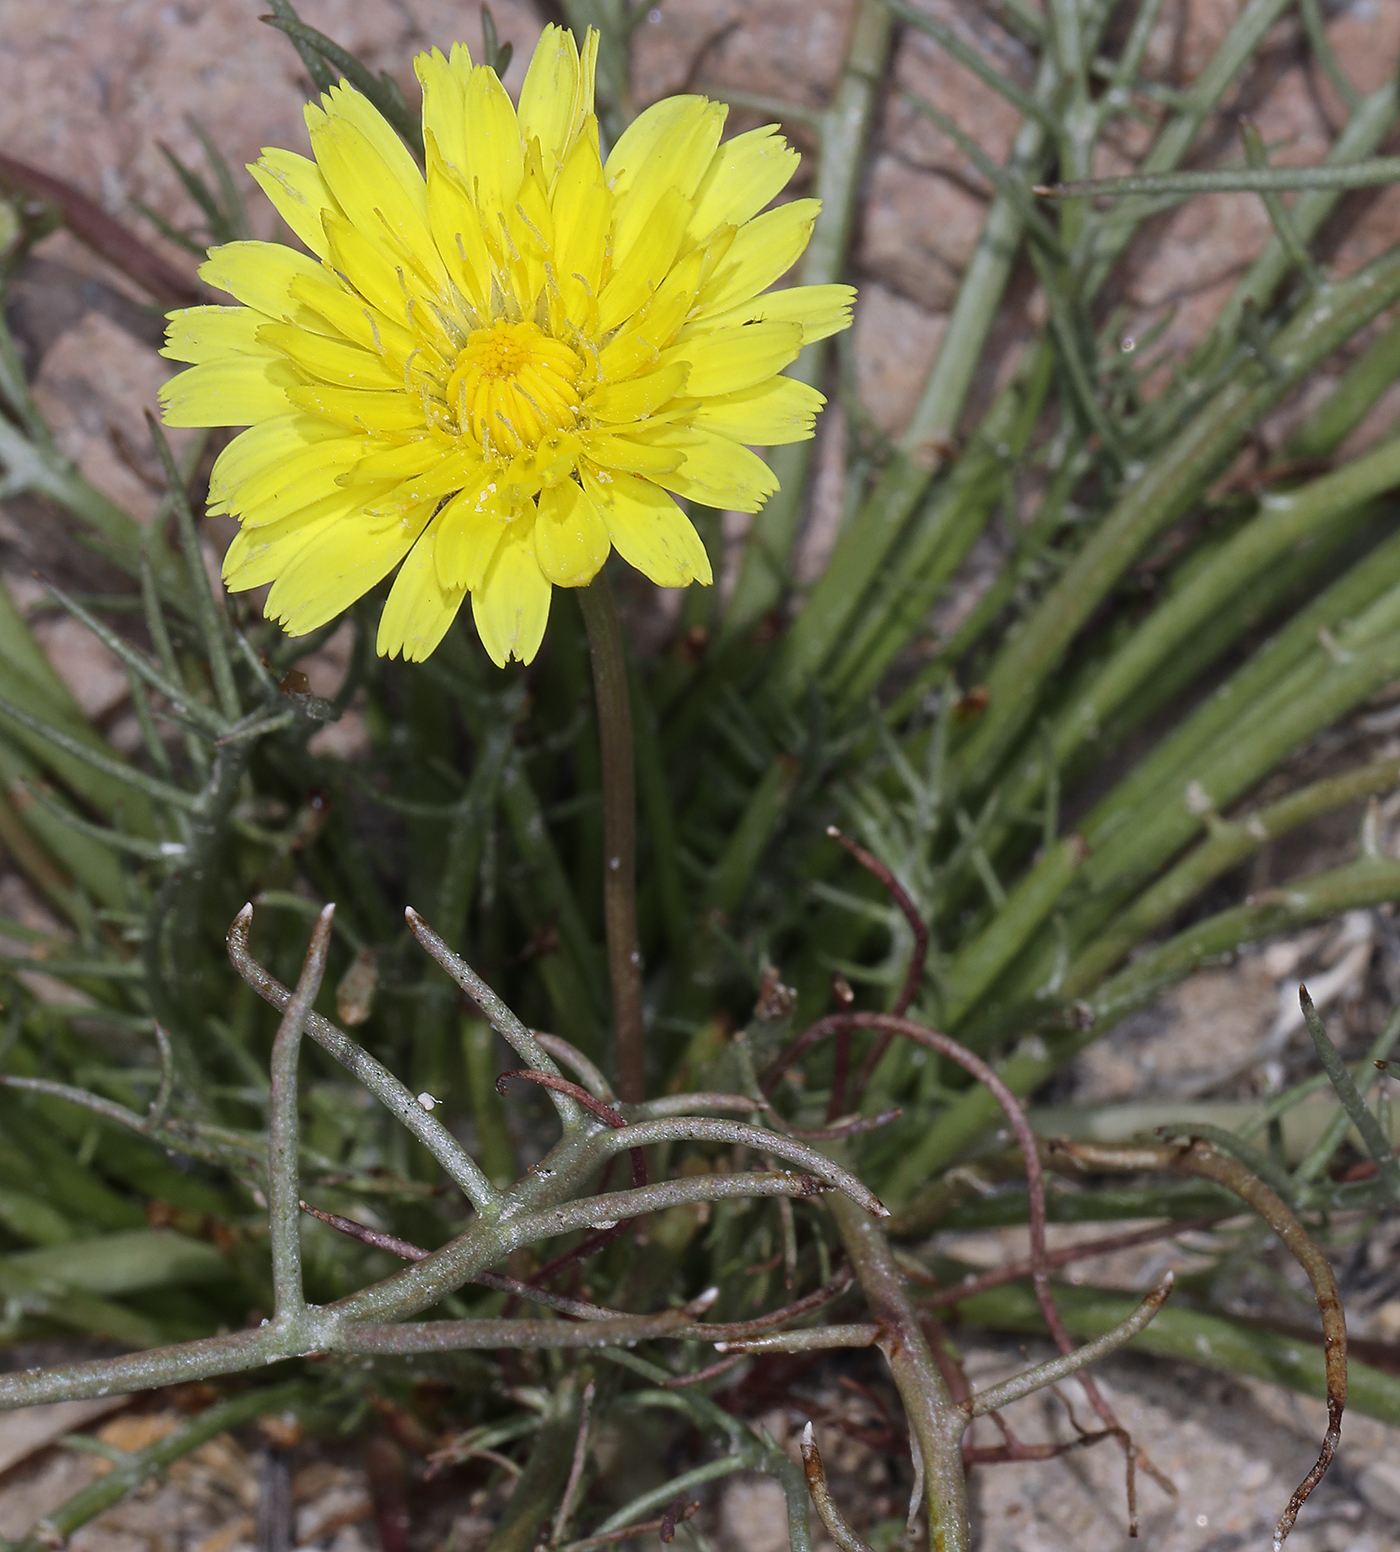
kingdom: Plantae
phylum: Tracheophyta
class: Magnoliopsida
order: Asterales
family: Asteraceae
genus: Malacothrix
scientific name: Malacothrix glabrata
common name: Smooth desert-dandelion
